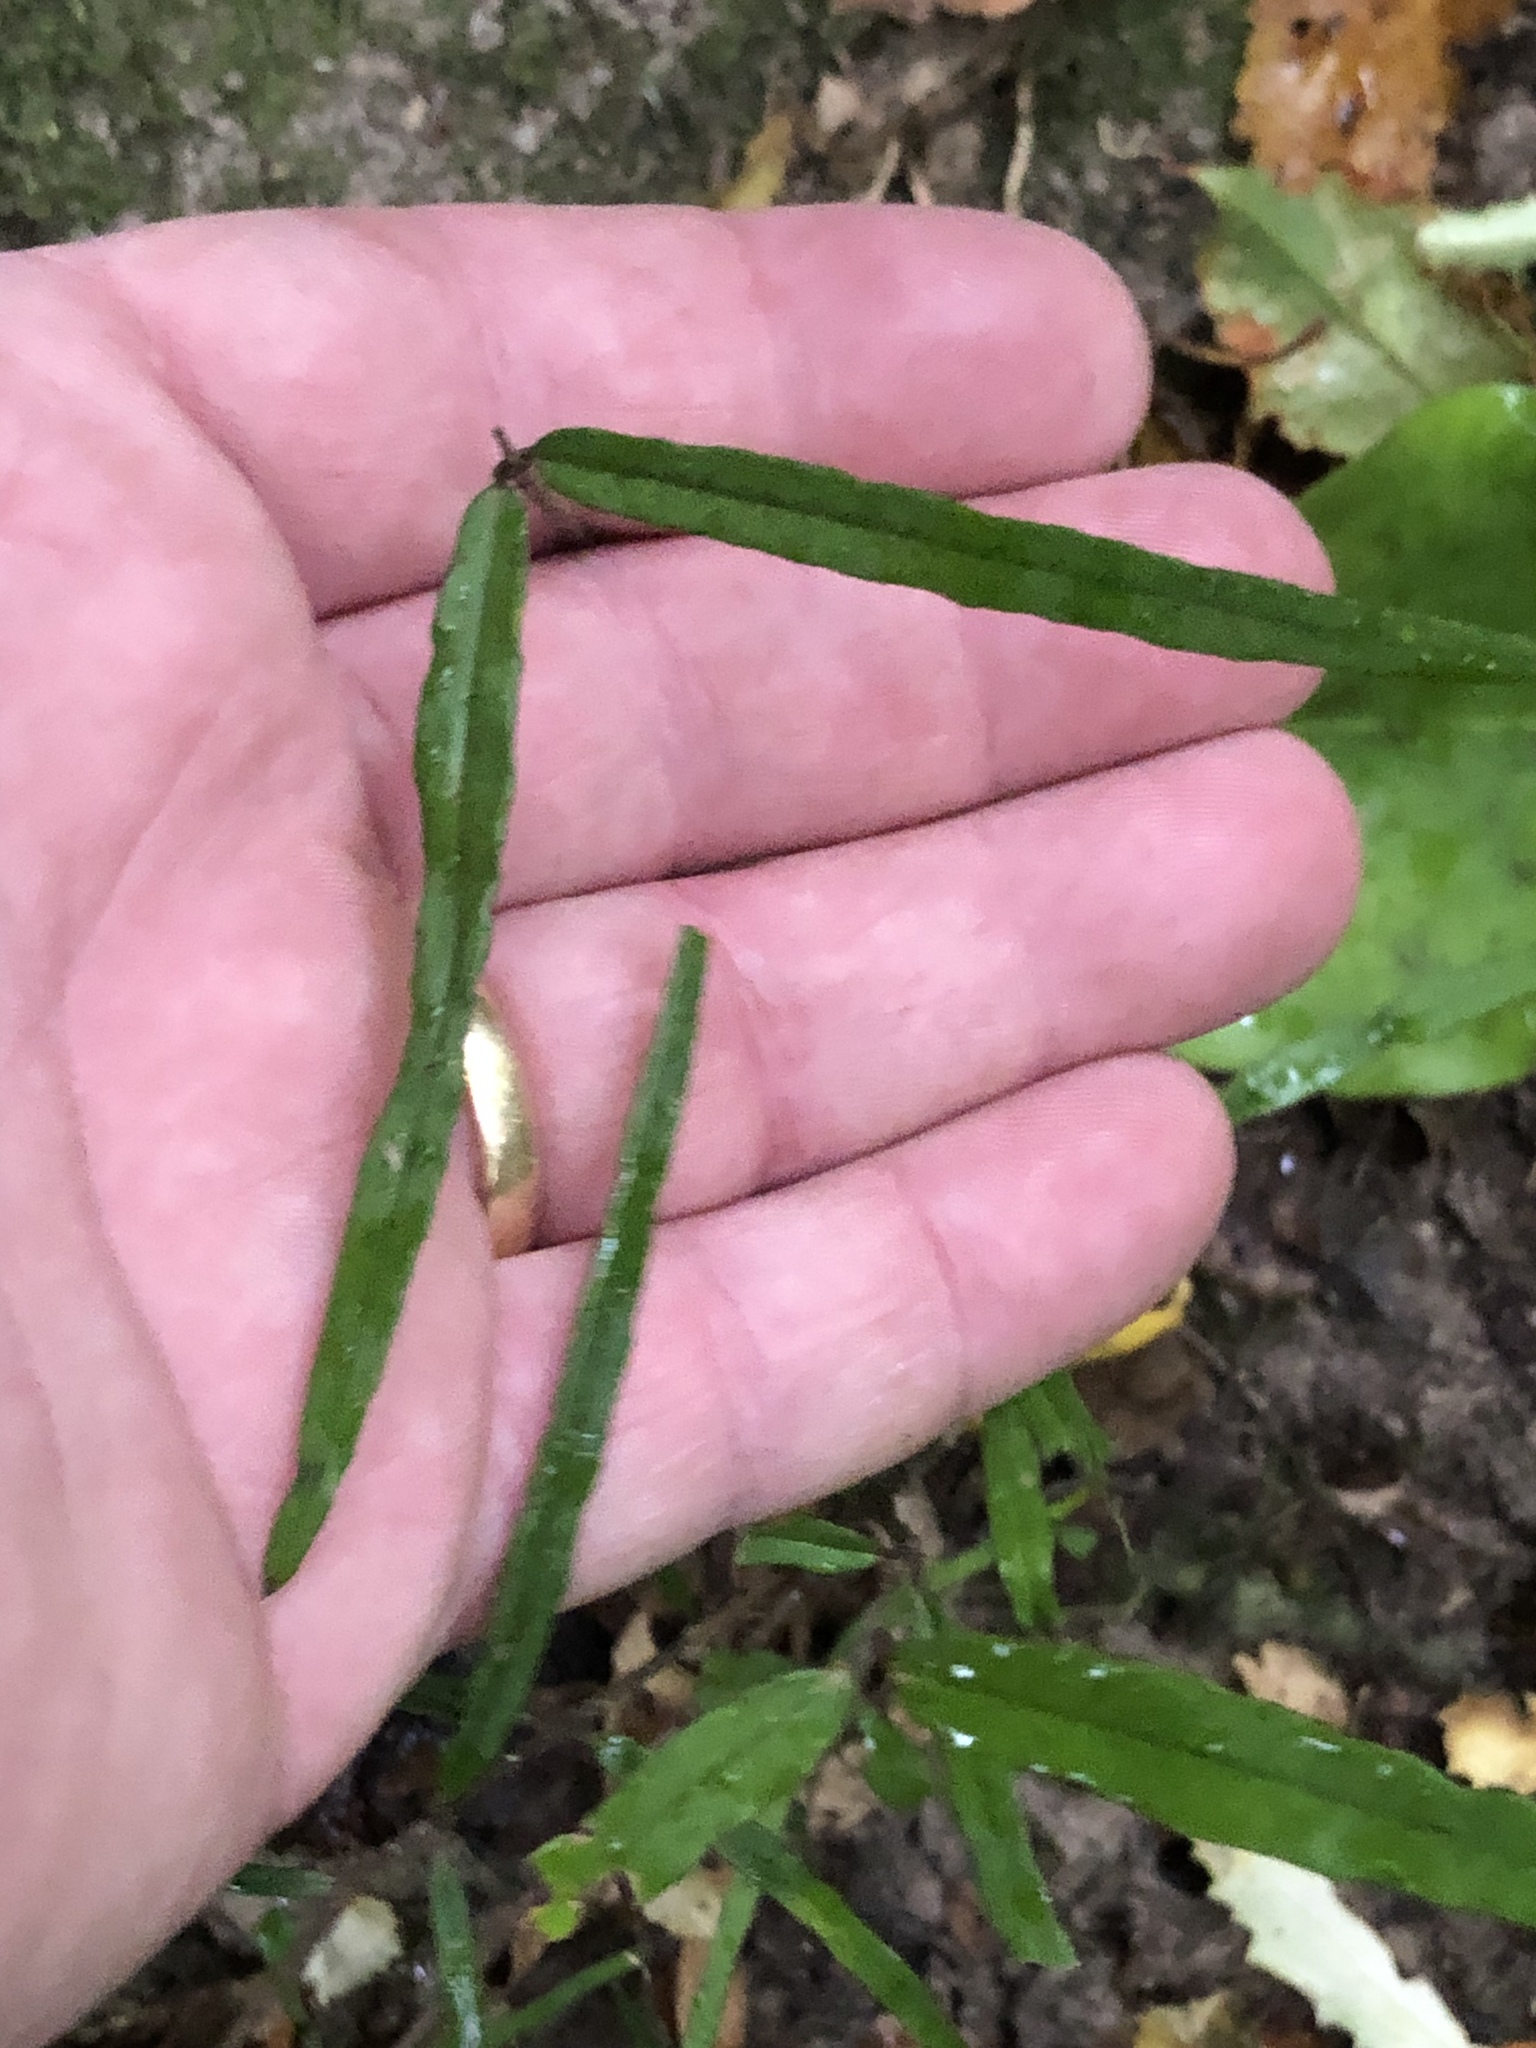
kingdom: Plantae
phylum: Tracheophyta
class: Magnoliopsida
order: Gentianales
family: Apocynaceae
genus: Parsonsia
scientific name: Parsonsia heterophylla
